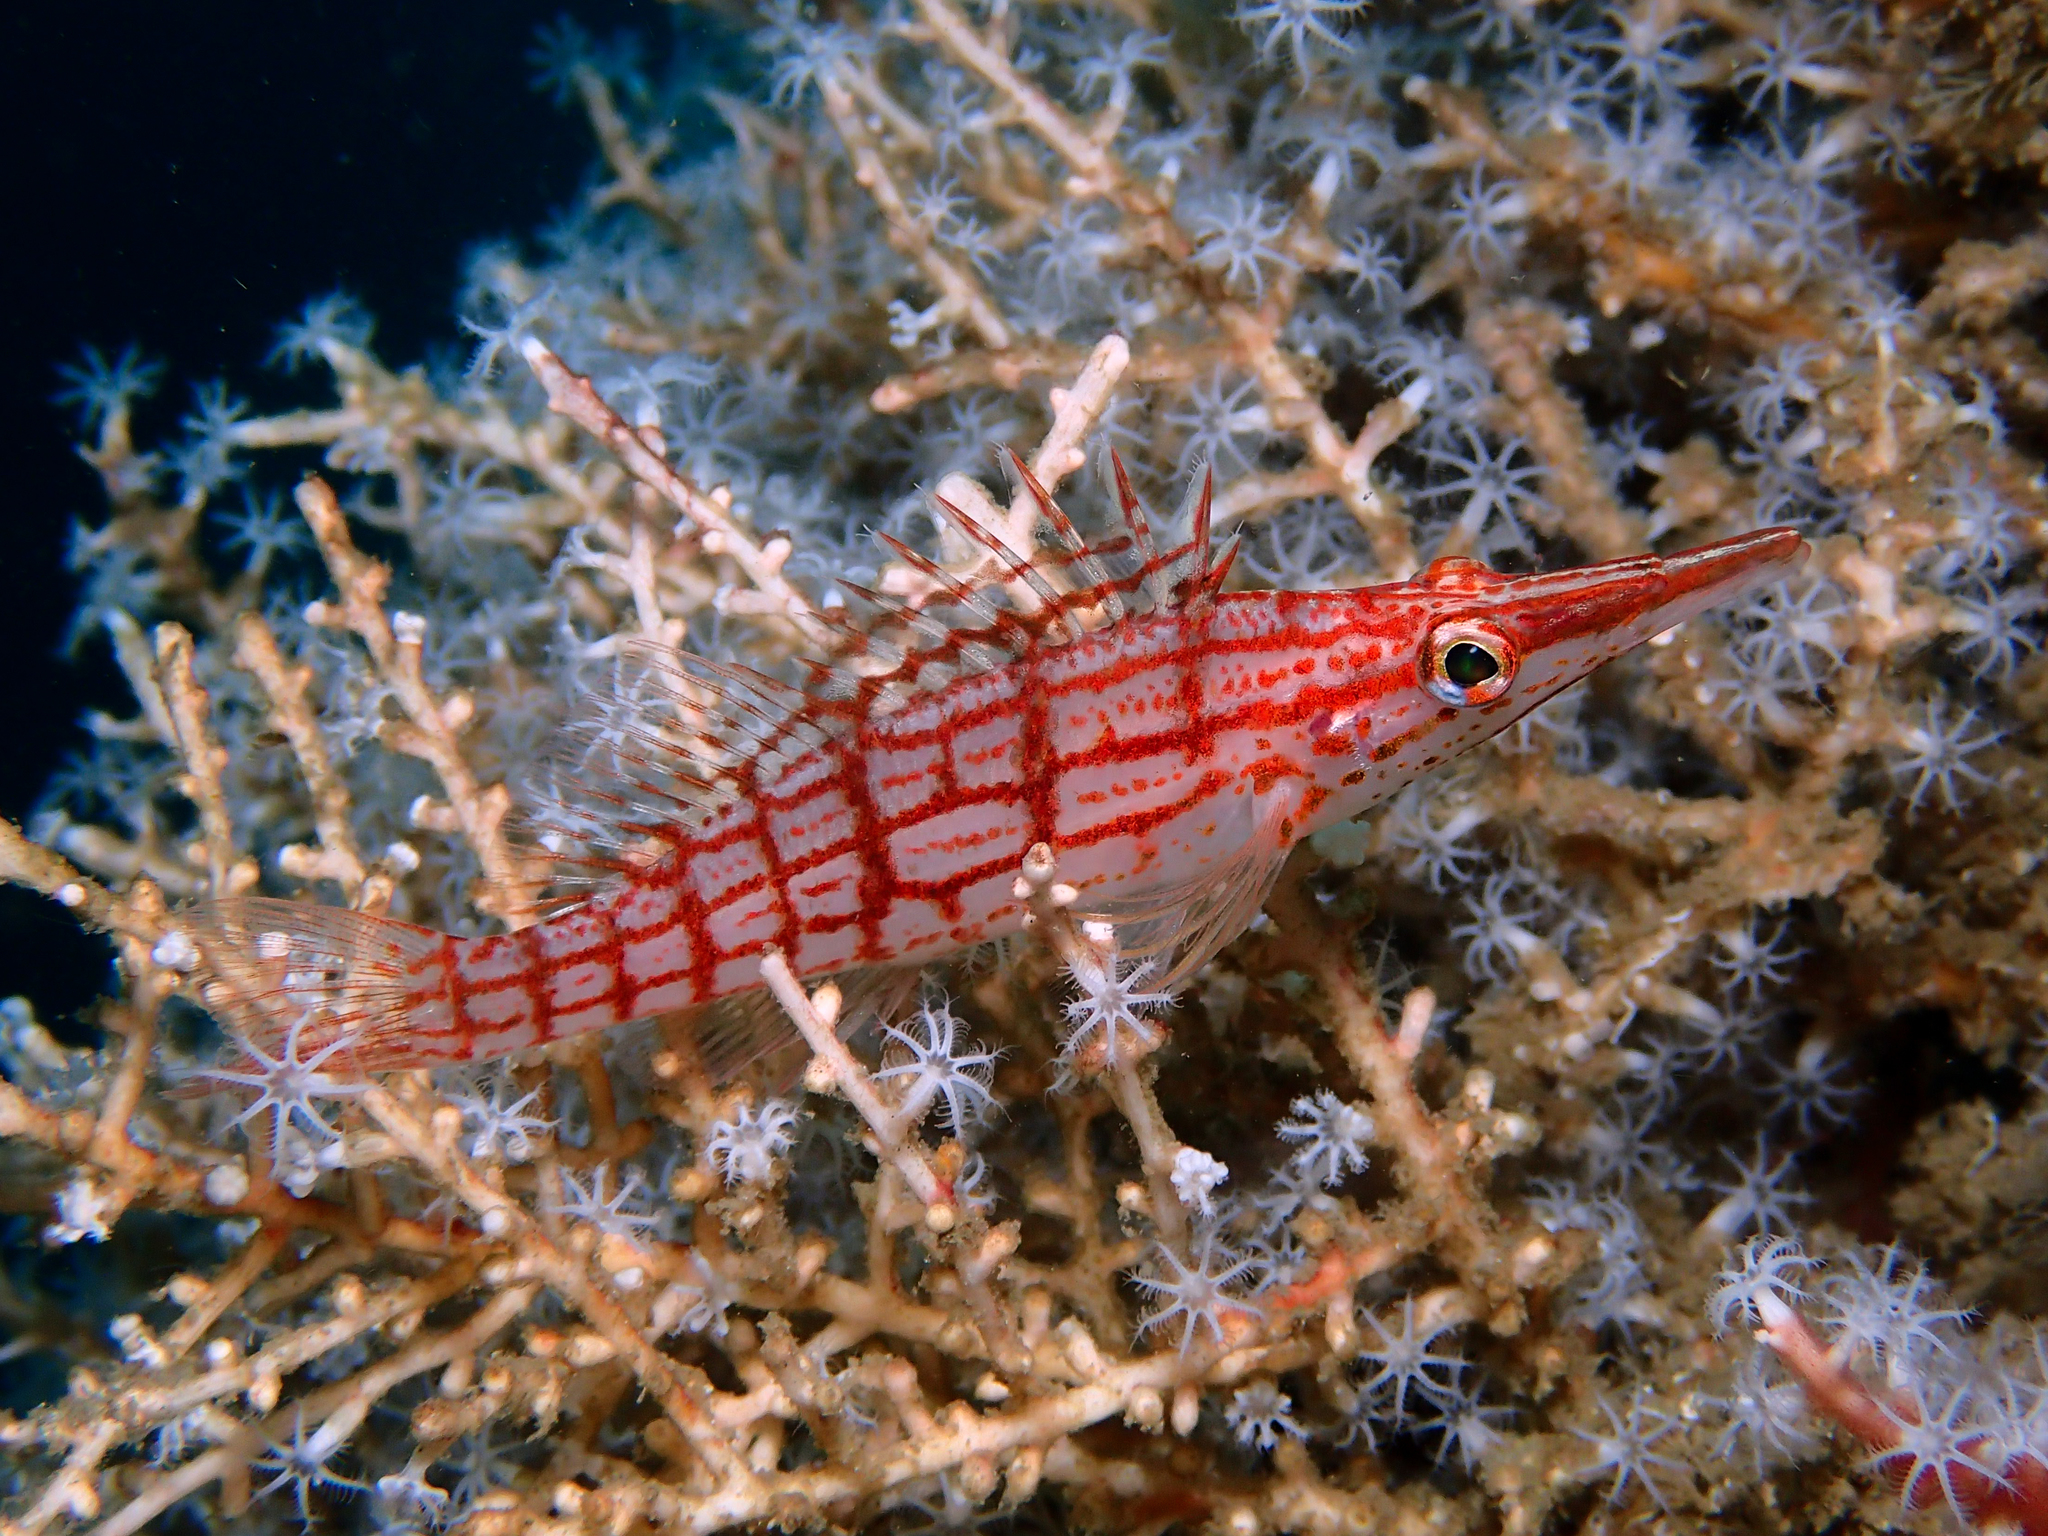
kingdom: Animalia
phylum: Chordata
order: Perciformes
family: Cirrhitidae
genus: Oxycirrhites
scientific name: Oxycirrhites typus
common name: Longnose hawkfish
